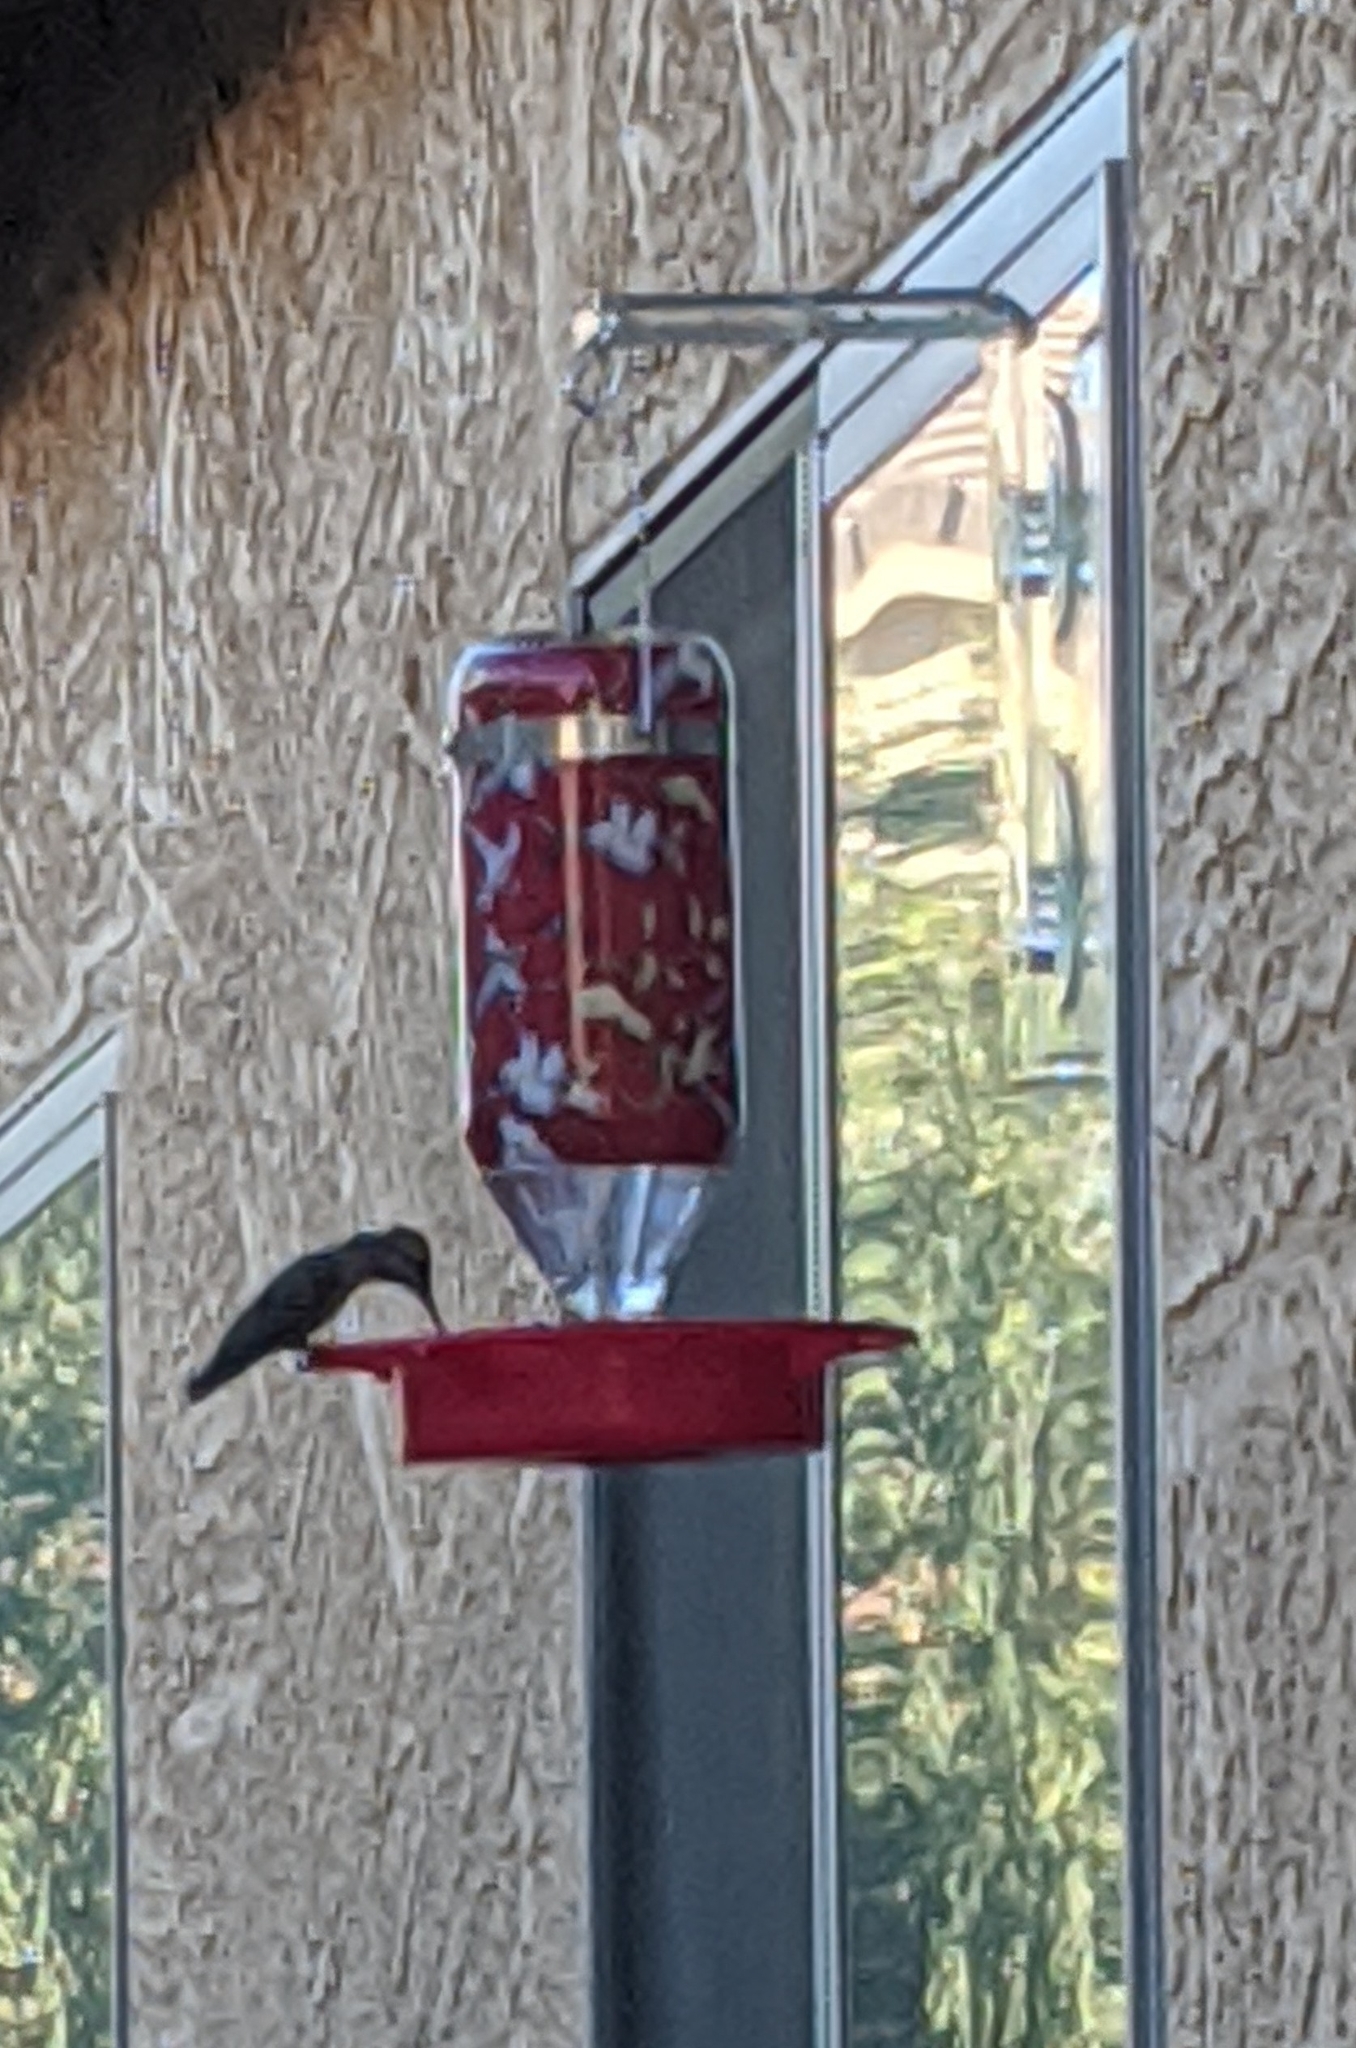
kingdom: Animalia
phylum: Chordata
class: Aves
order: Apodiformes
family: Trochilidae
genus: Calypte
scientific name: Calypte anna
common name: Anna's hummingbird
